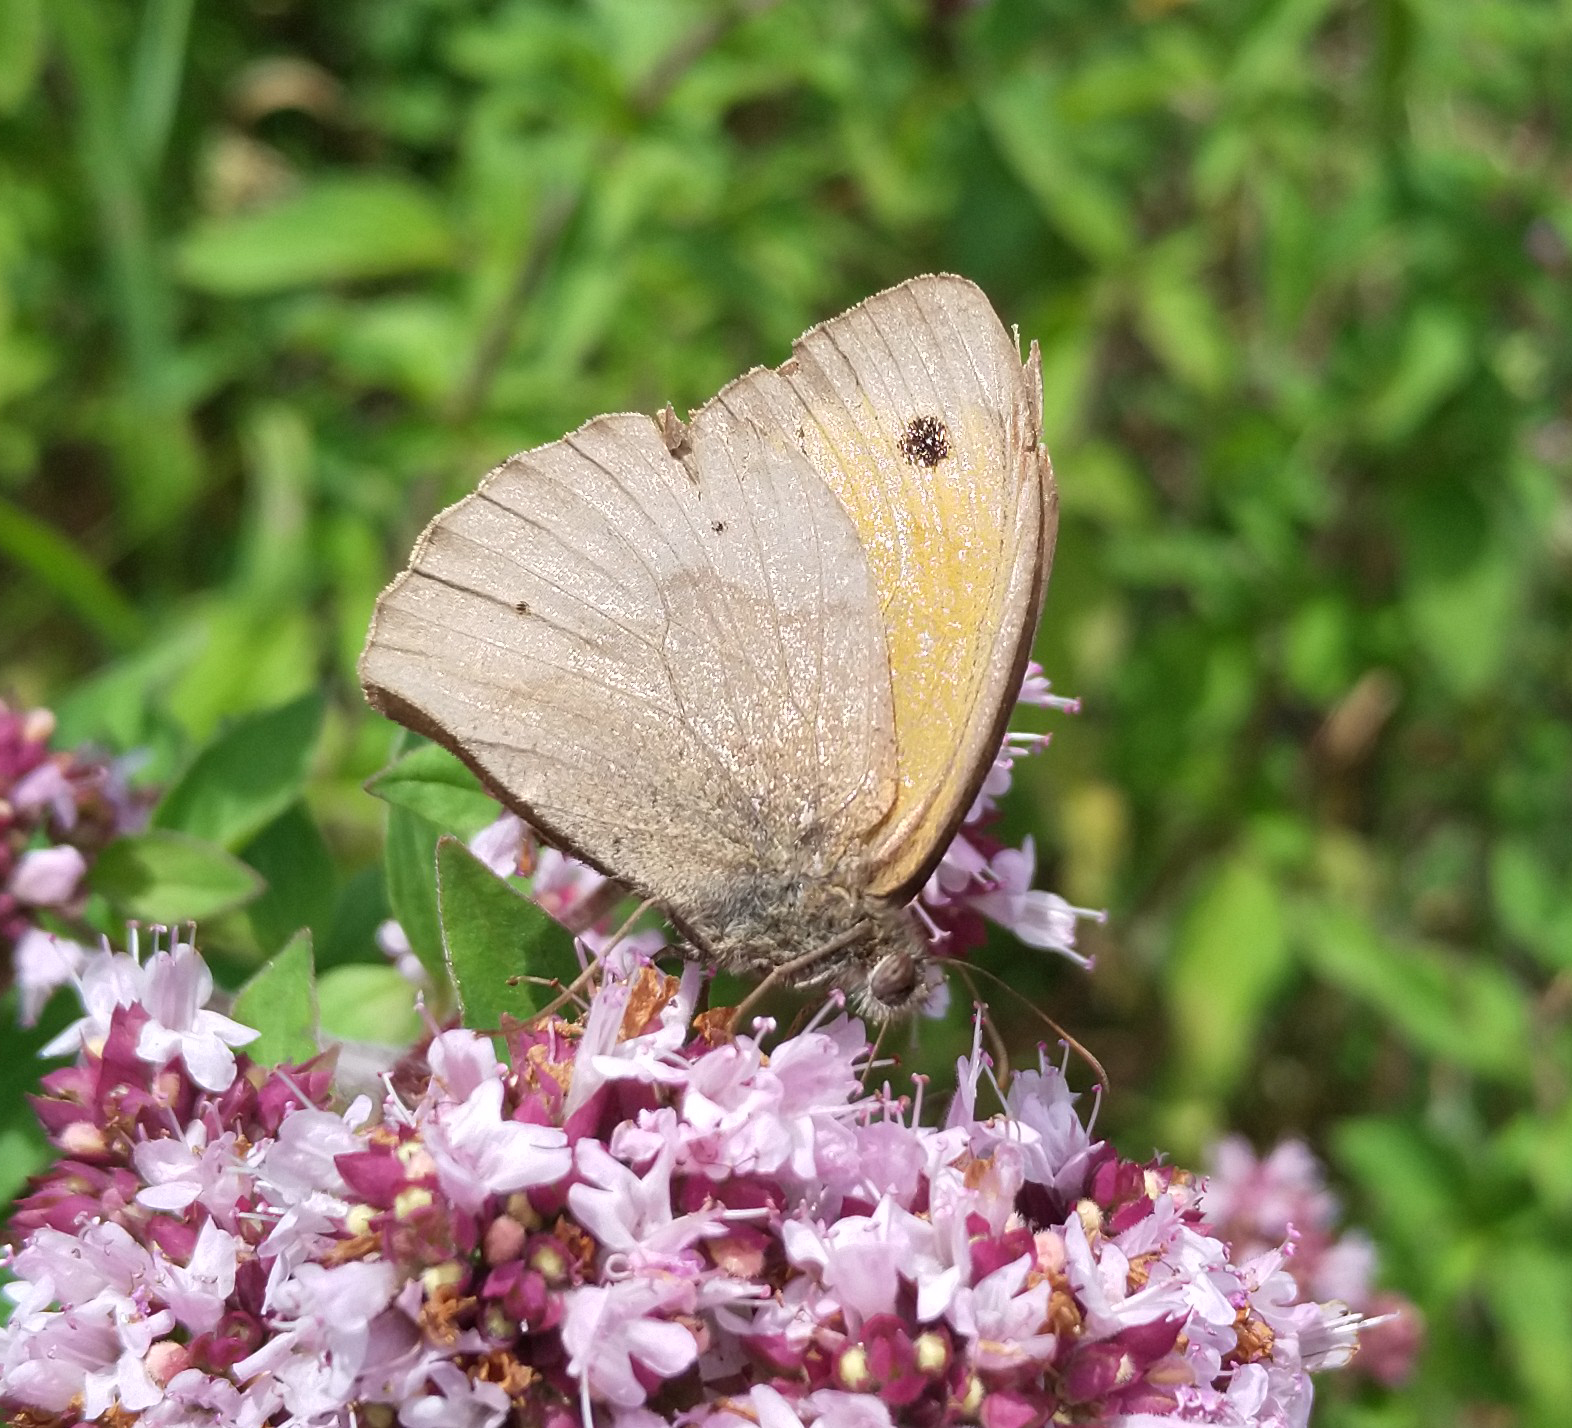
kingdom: Animalia
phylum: Arthropoda
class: Insecta
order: Lepidoptera
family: Nymphalidae
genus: Maniola
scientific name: Maniola jurtina
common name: Meadow brown
